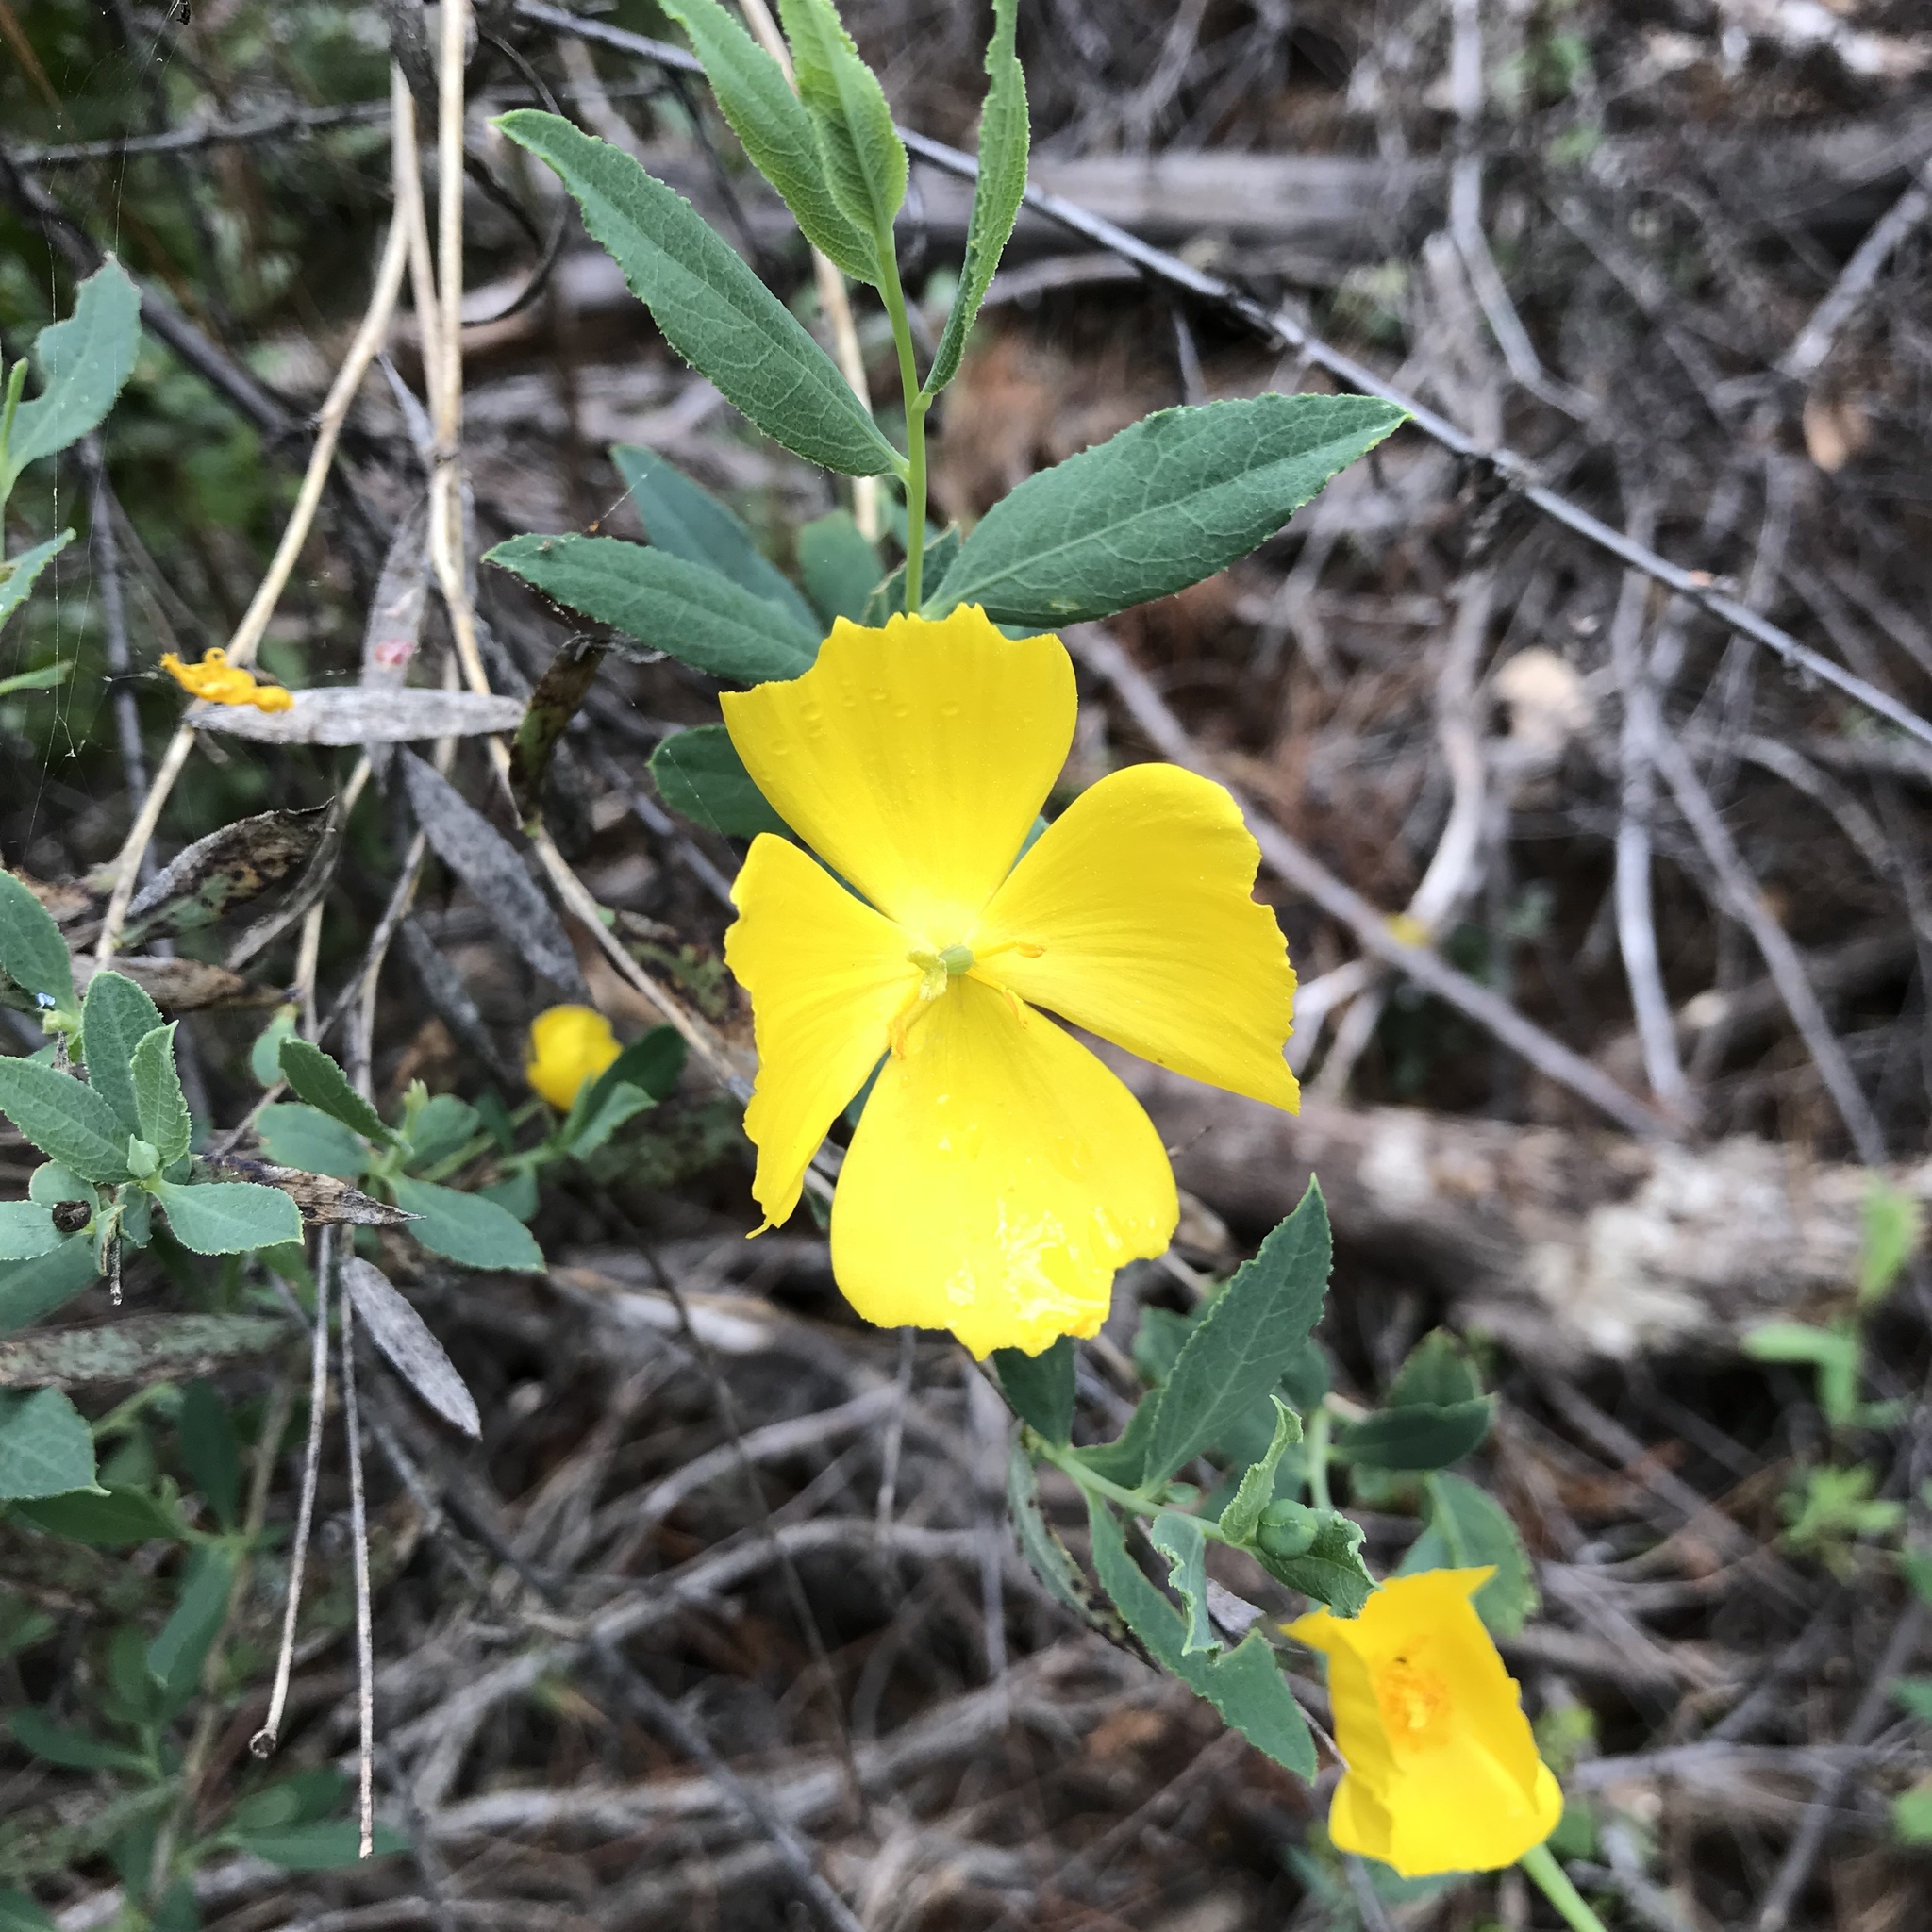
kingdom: Plantae
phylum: Tracheophyta
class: Magnoliopsida
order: Ranunculales
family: Papaveraceae
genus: Dendromecon
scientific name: Dendromecon rigida
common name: Tree poppy
